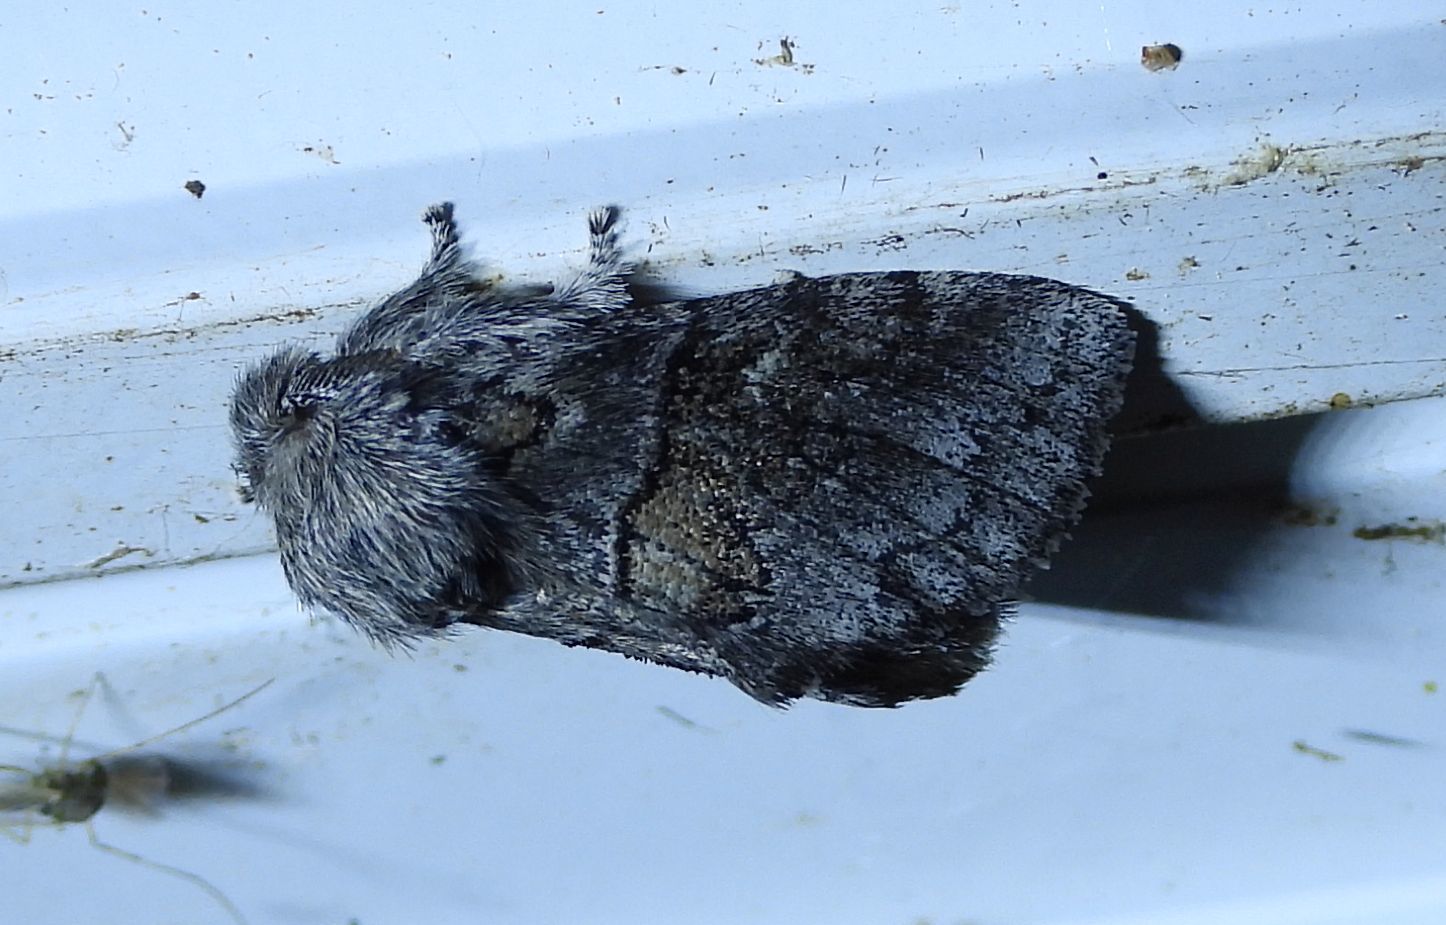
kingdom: Animalia
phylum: Arthropoda
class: Insecta
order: Lepidoptera
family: Notodontidae
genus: Gluphisia
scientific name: Gluphisia septentrionis
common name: Common gluphisia
